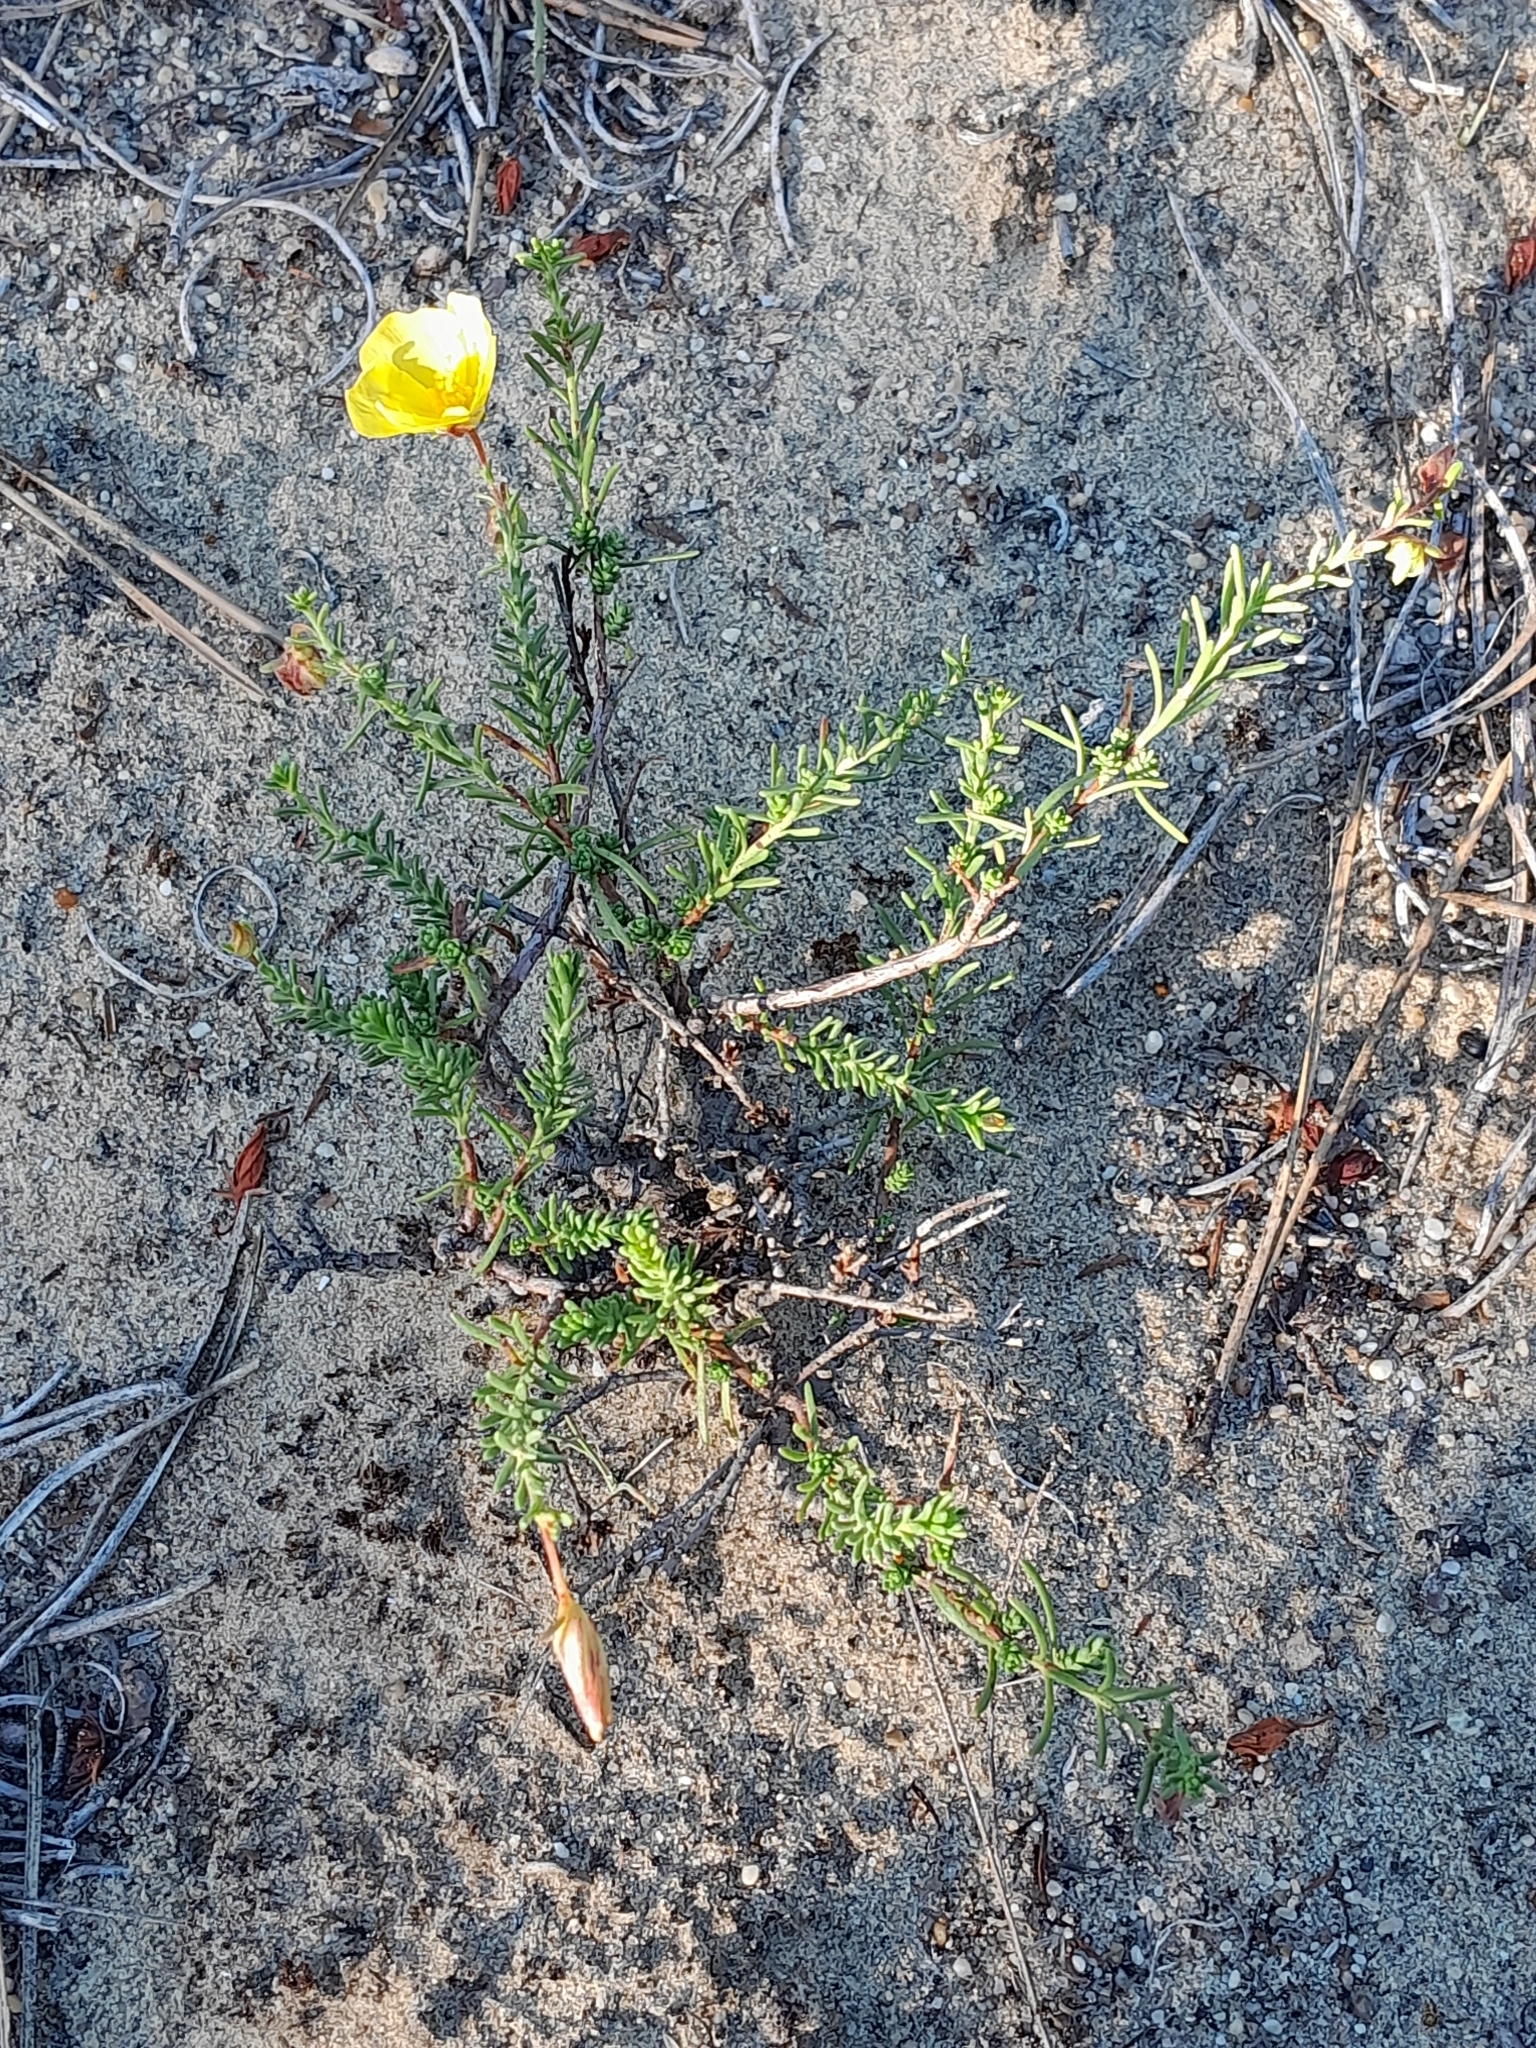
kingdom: Plantae
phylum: Tracheophyta
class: Magnoliopsida
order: Malvales
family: Cistaceae
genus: Fumana
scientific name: Fumana procumbens
